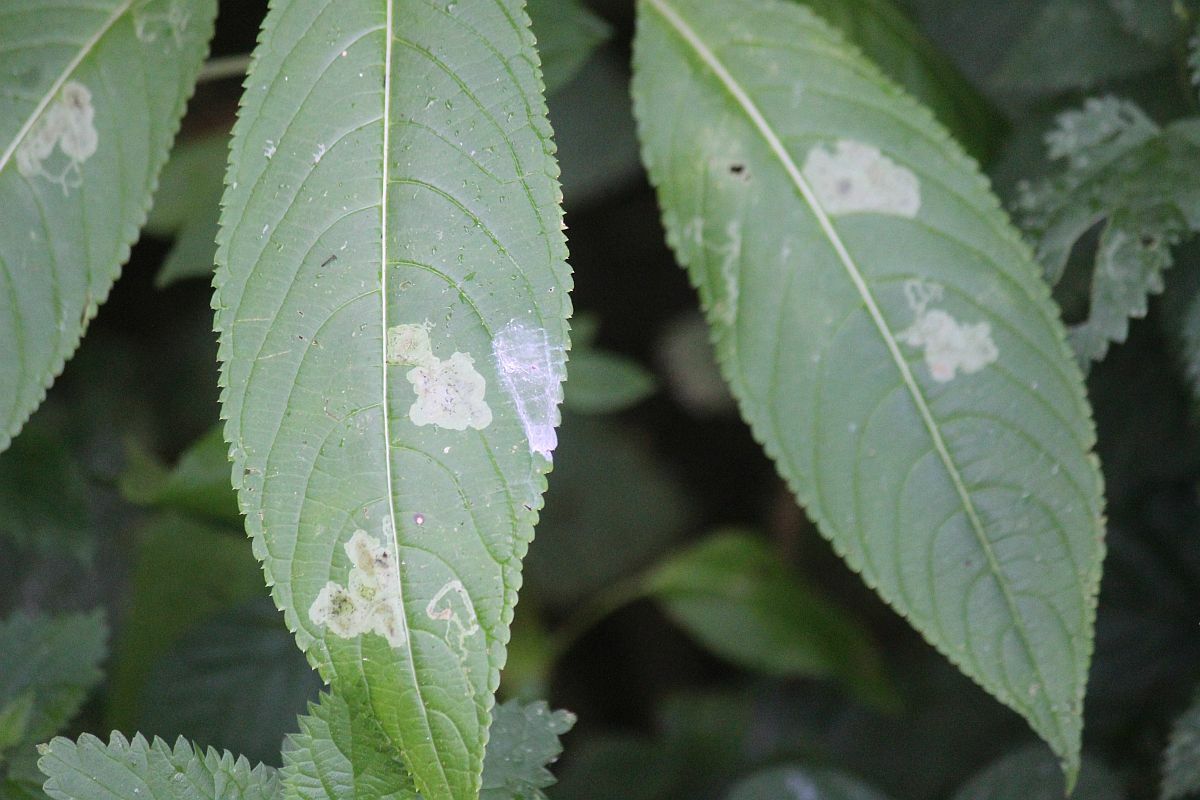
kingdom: Animalia
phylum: Arthropoda
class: Insecta
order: Diptera
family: Agromyzidae
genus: Phytoliriomyza
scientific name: Phytoliriomyza melampyga
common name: Jewelweed leaf-miner fly
